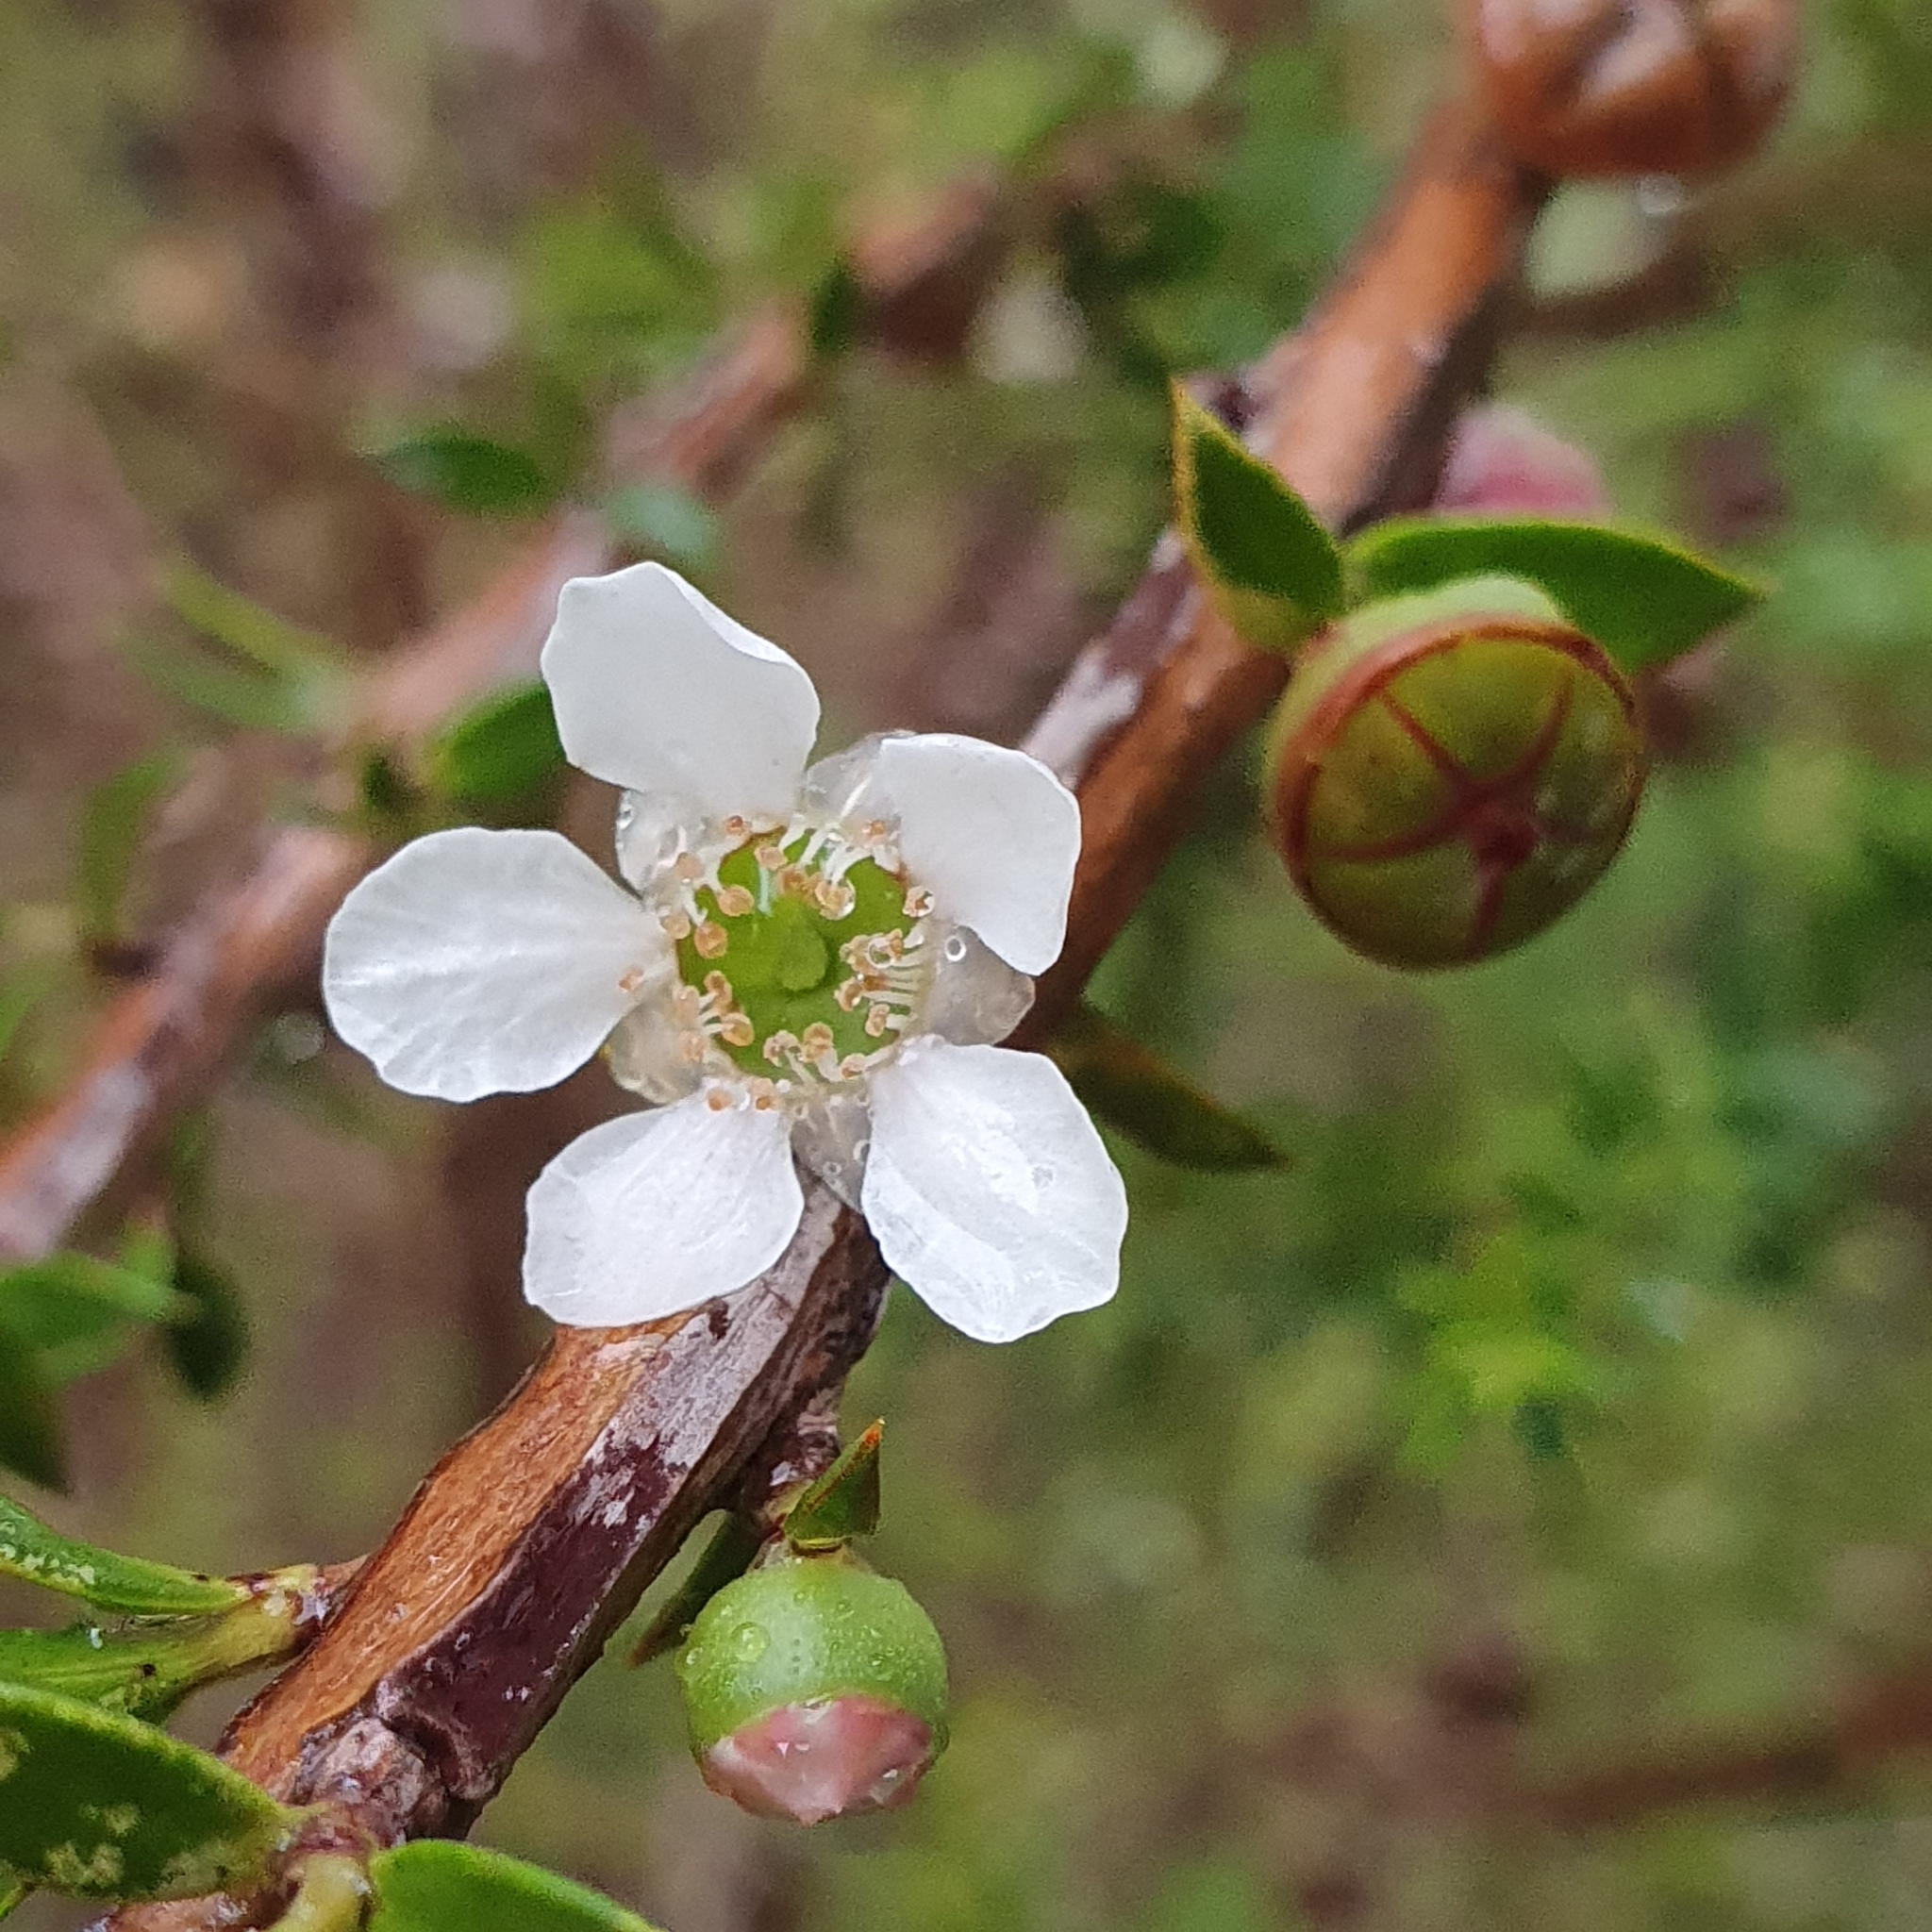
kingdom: Plantae
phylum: Tracheophyta
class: Magnoliopsida
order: Myrtales
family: Myrtaceae
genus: Leptospermum
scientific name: Leptospermum squarrosum
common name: Peach-blossom teatree
